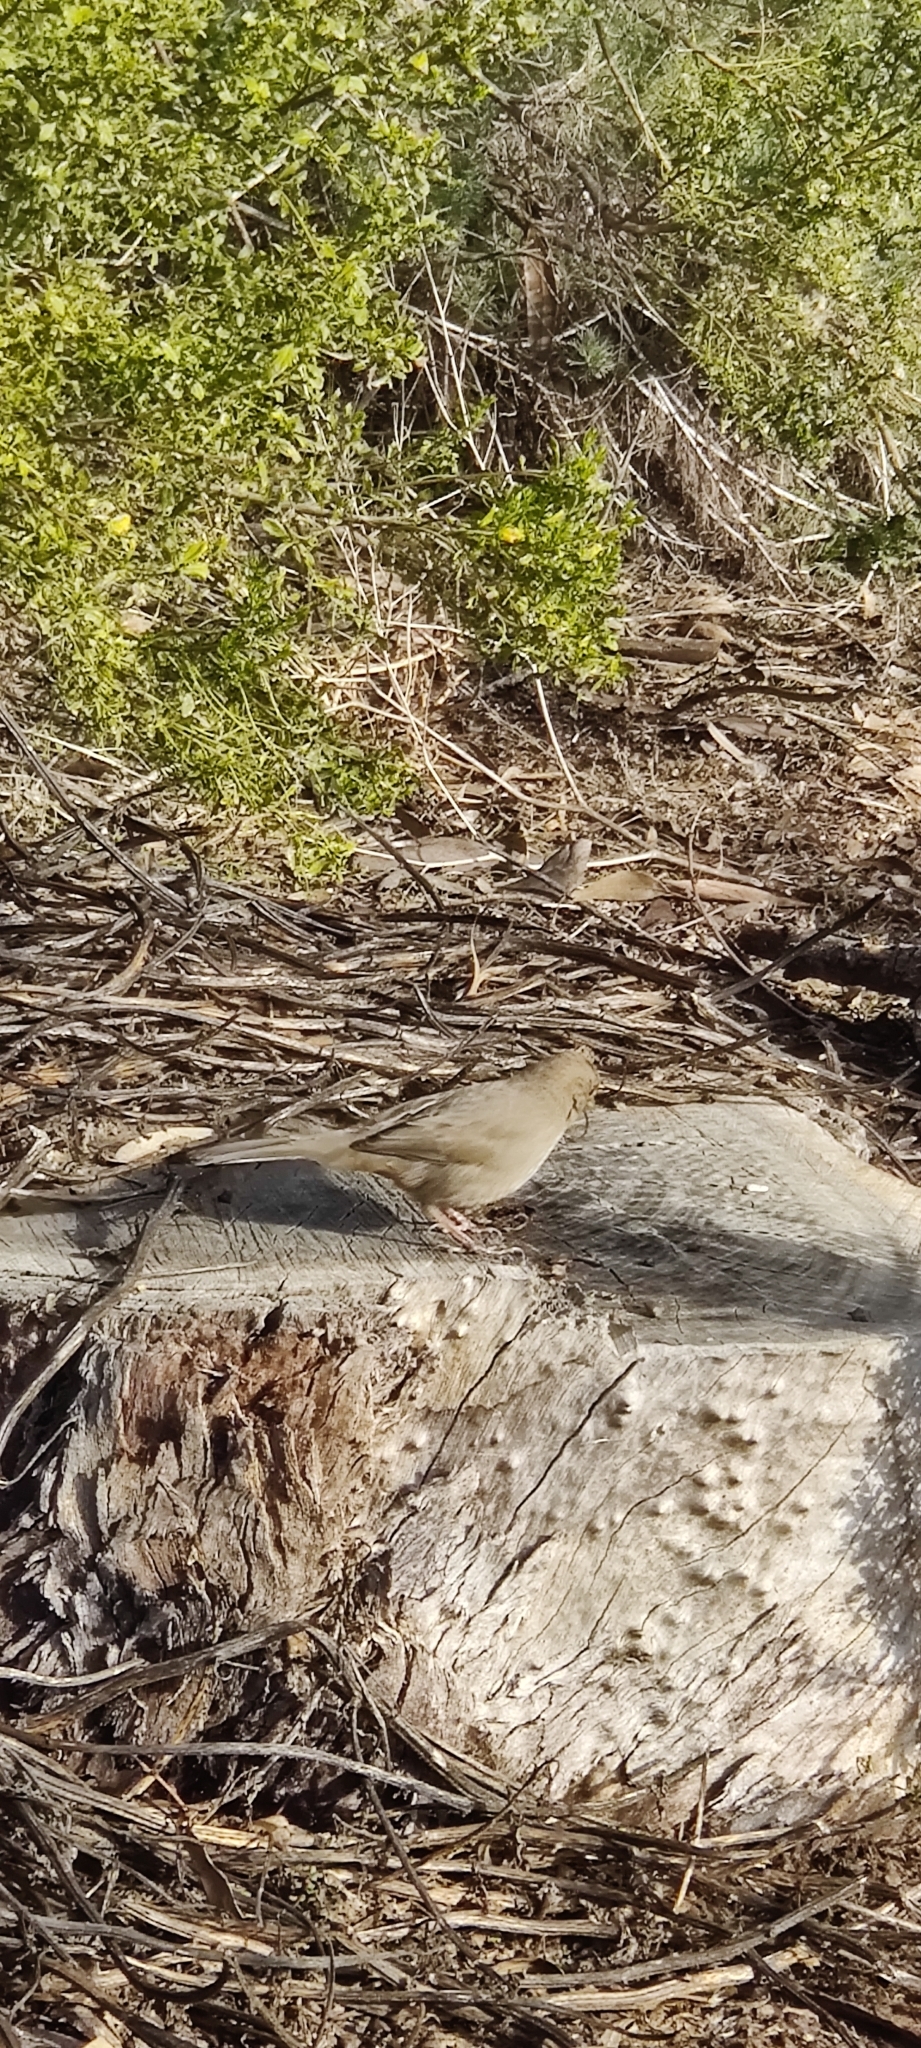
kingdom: Animalia
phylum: Chordata
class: Aves
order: Passeriformes
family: Passerellidae
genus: Melozone
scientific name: Melozone crissalis
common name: California towhee
